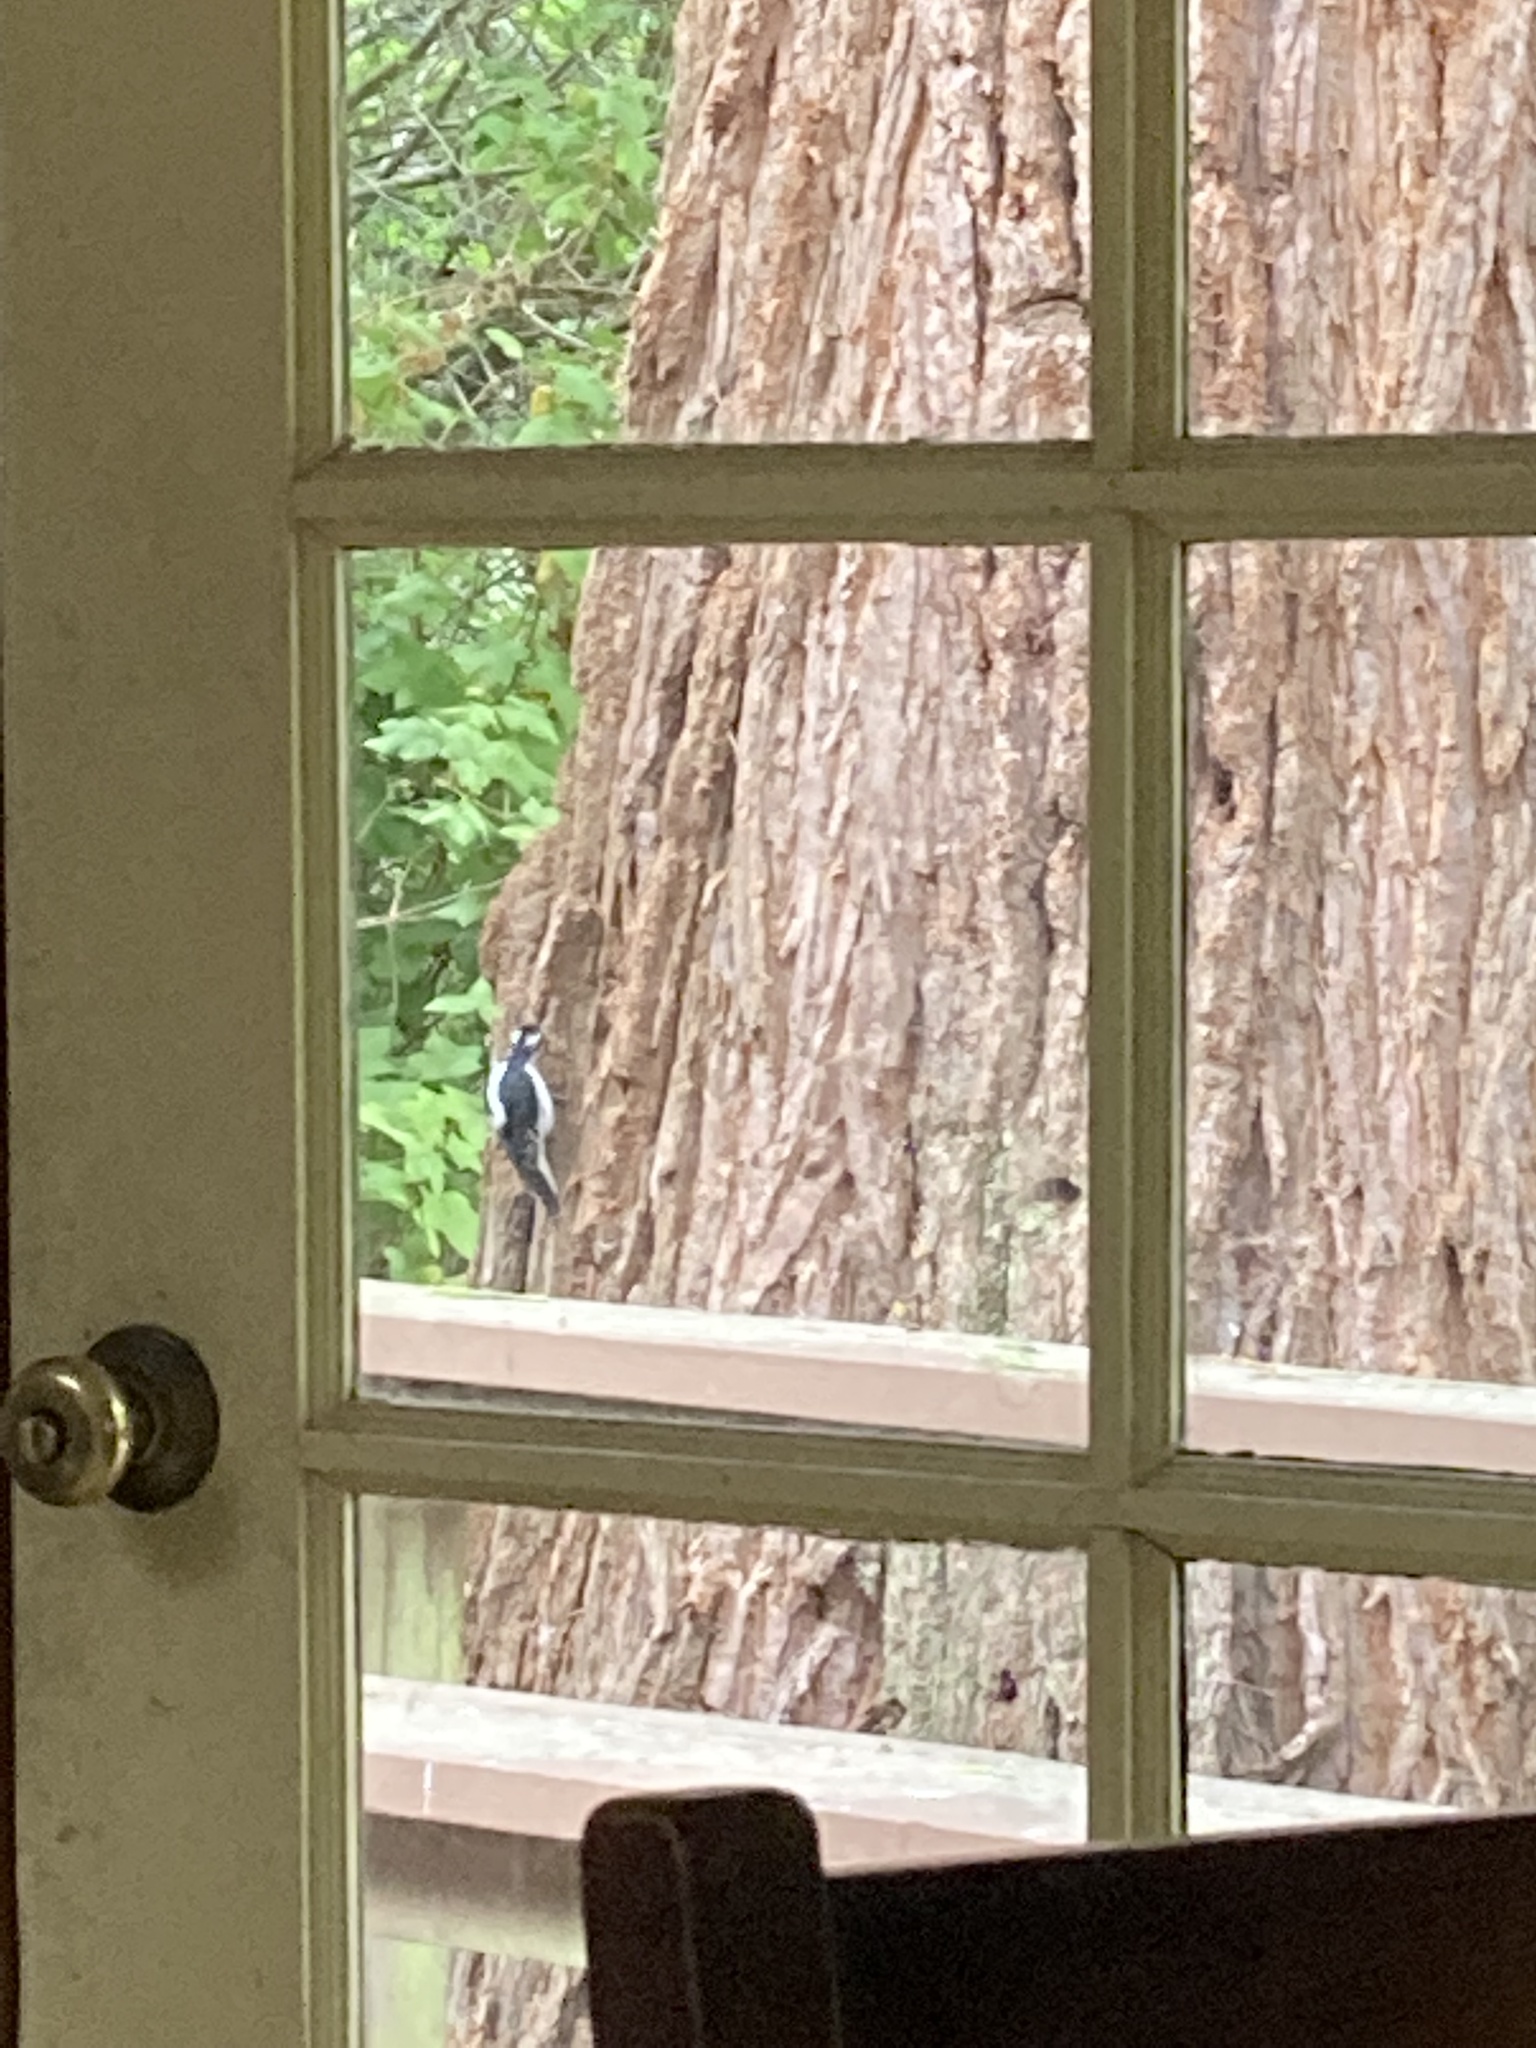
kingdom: Animalia
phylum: Chordata
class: Aves
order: Piciformes
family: Picidae
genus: Leuconotopicus
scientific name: Leuconotopicus villosus
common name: Hairy woodpecker
